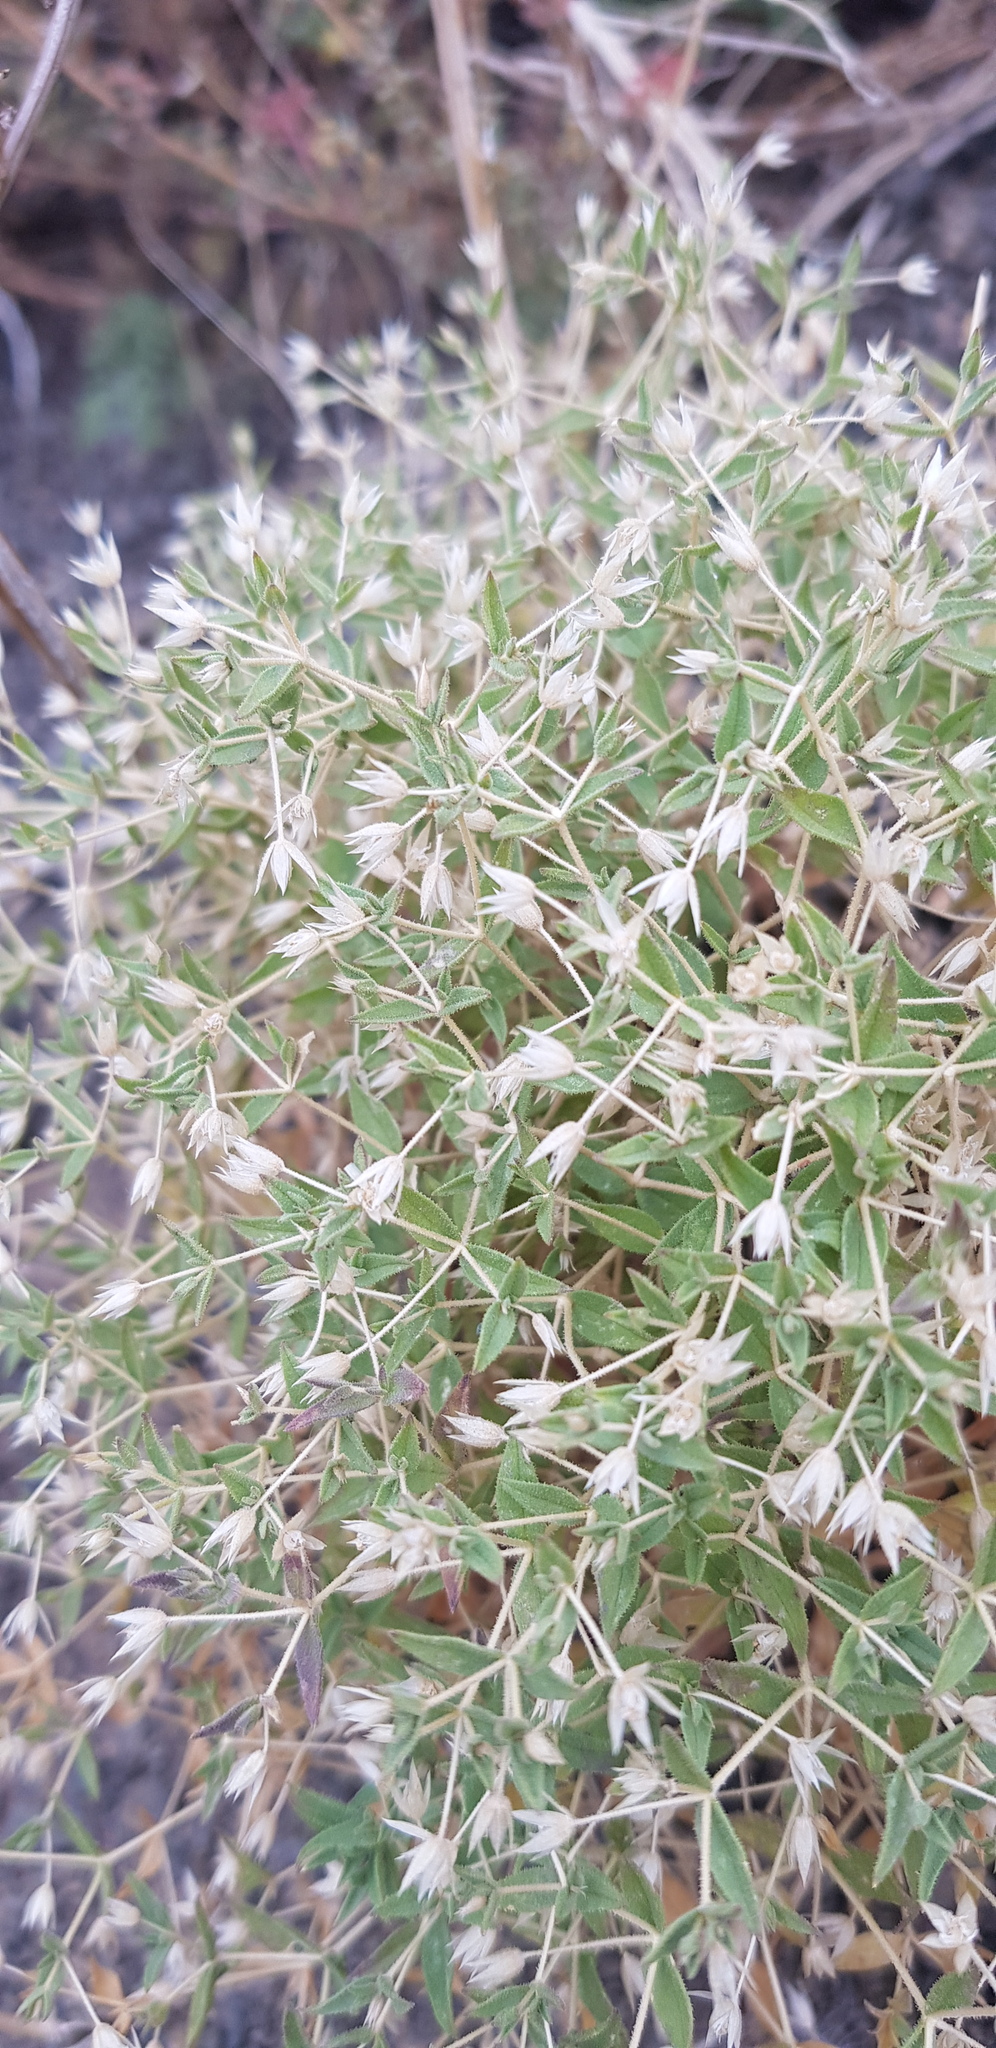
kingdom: Plantae
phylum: Tracheophyta
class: Magnoliopsida
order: Caryophyllales
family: Caryophyllaceae
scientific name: Caryophyllaceae
